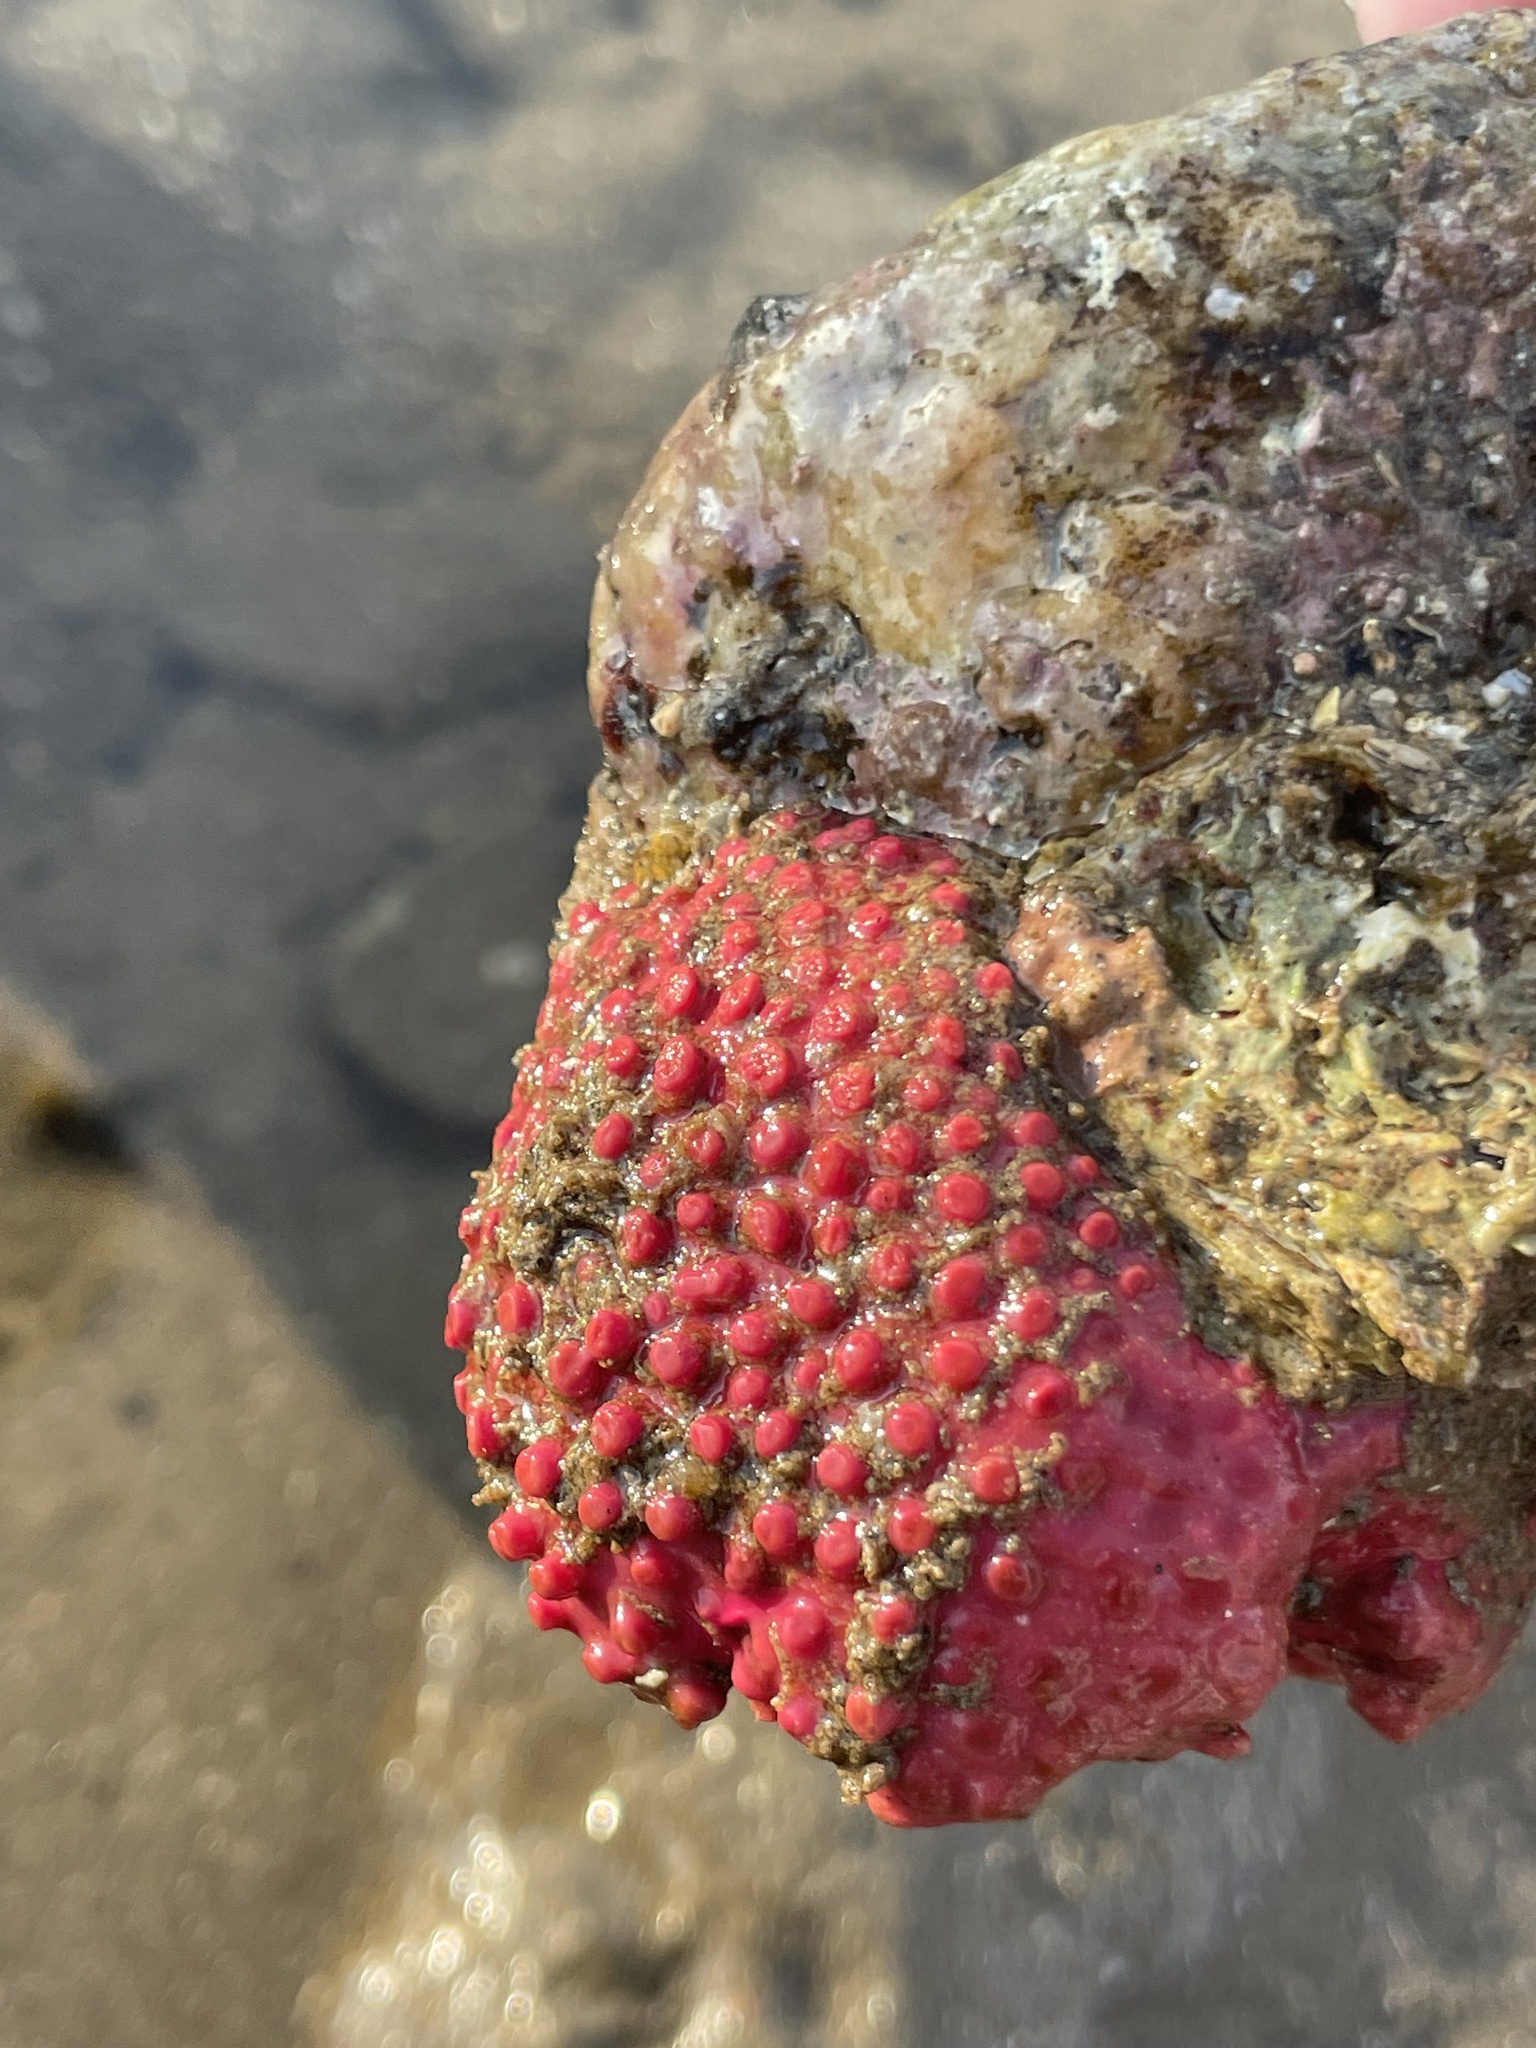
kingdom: Animalia
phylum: Porifera
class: Demospongiae
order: Clionaida
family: Clionaidae
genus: Cliona
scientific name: Cliona californiana
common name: California boring horny sponge
